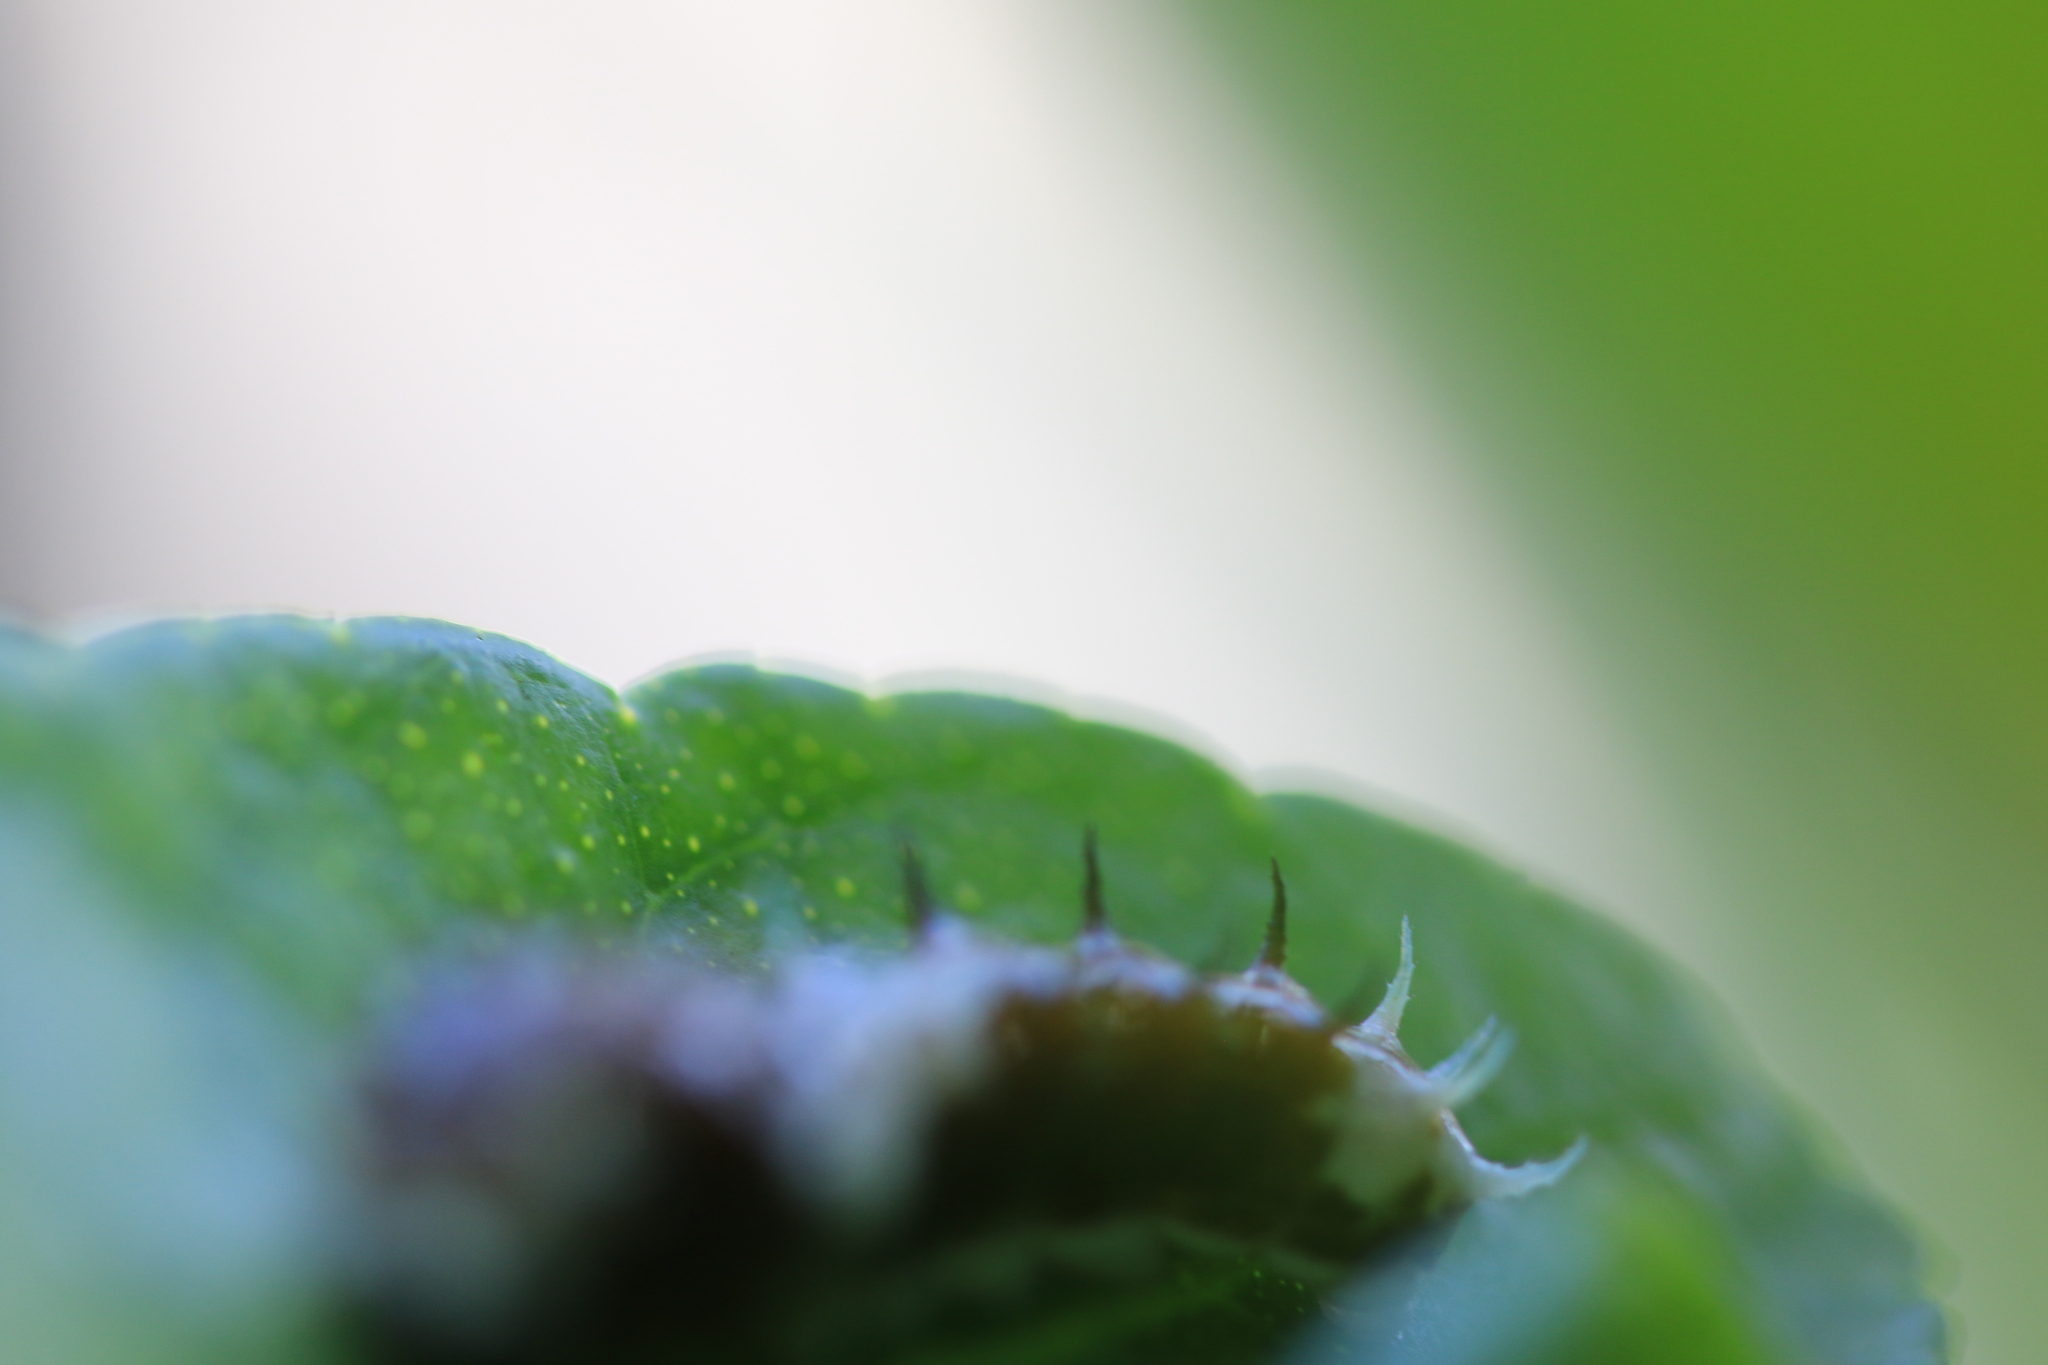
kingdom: Animalia
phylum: Arthropoda
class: Insecta
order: Lepidoptera
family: Papilionidae
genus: Papilio
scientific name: Papilio aegeus
